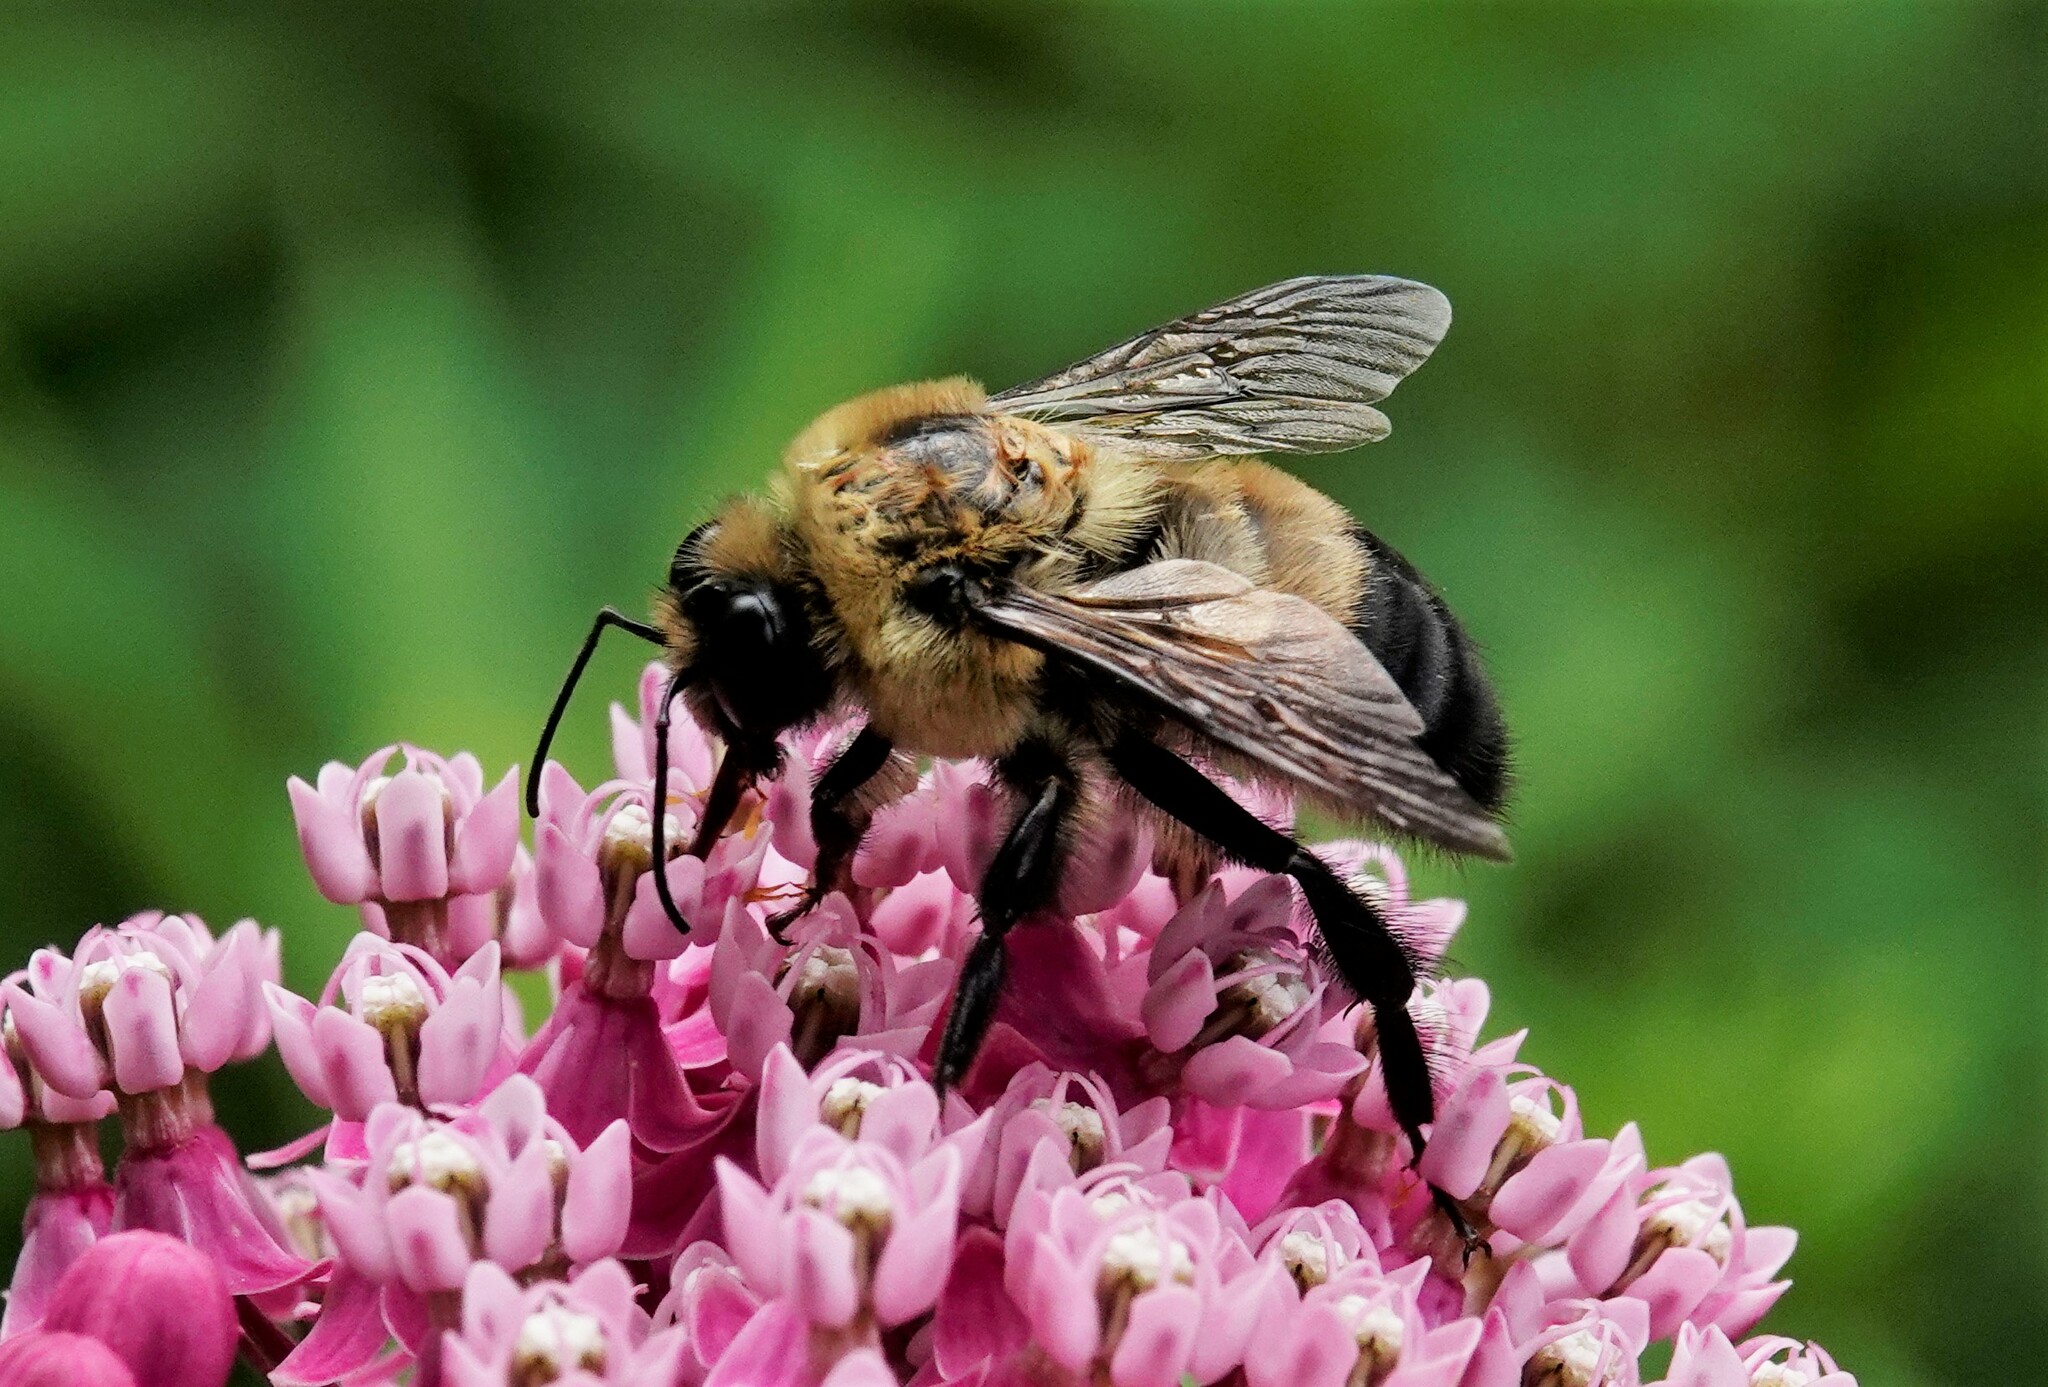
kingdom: Animalia
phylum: Arthropoda
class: Insecta
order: Hymenoptera
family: Apidae
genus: Bombus
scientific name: Bombus griseocollis
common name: Brown-belted bumble bee
